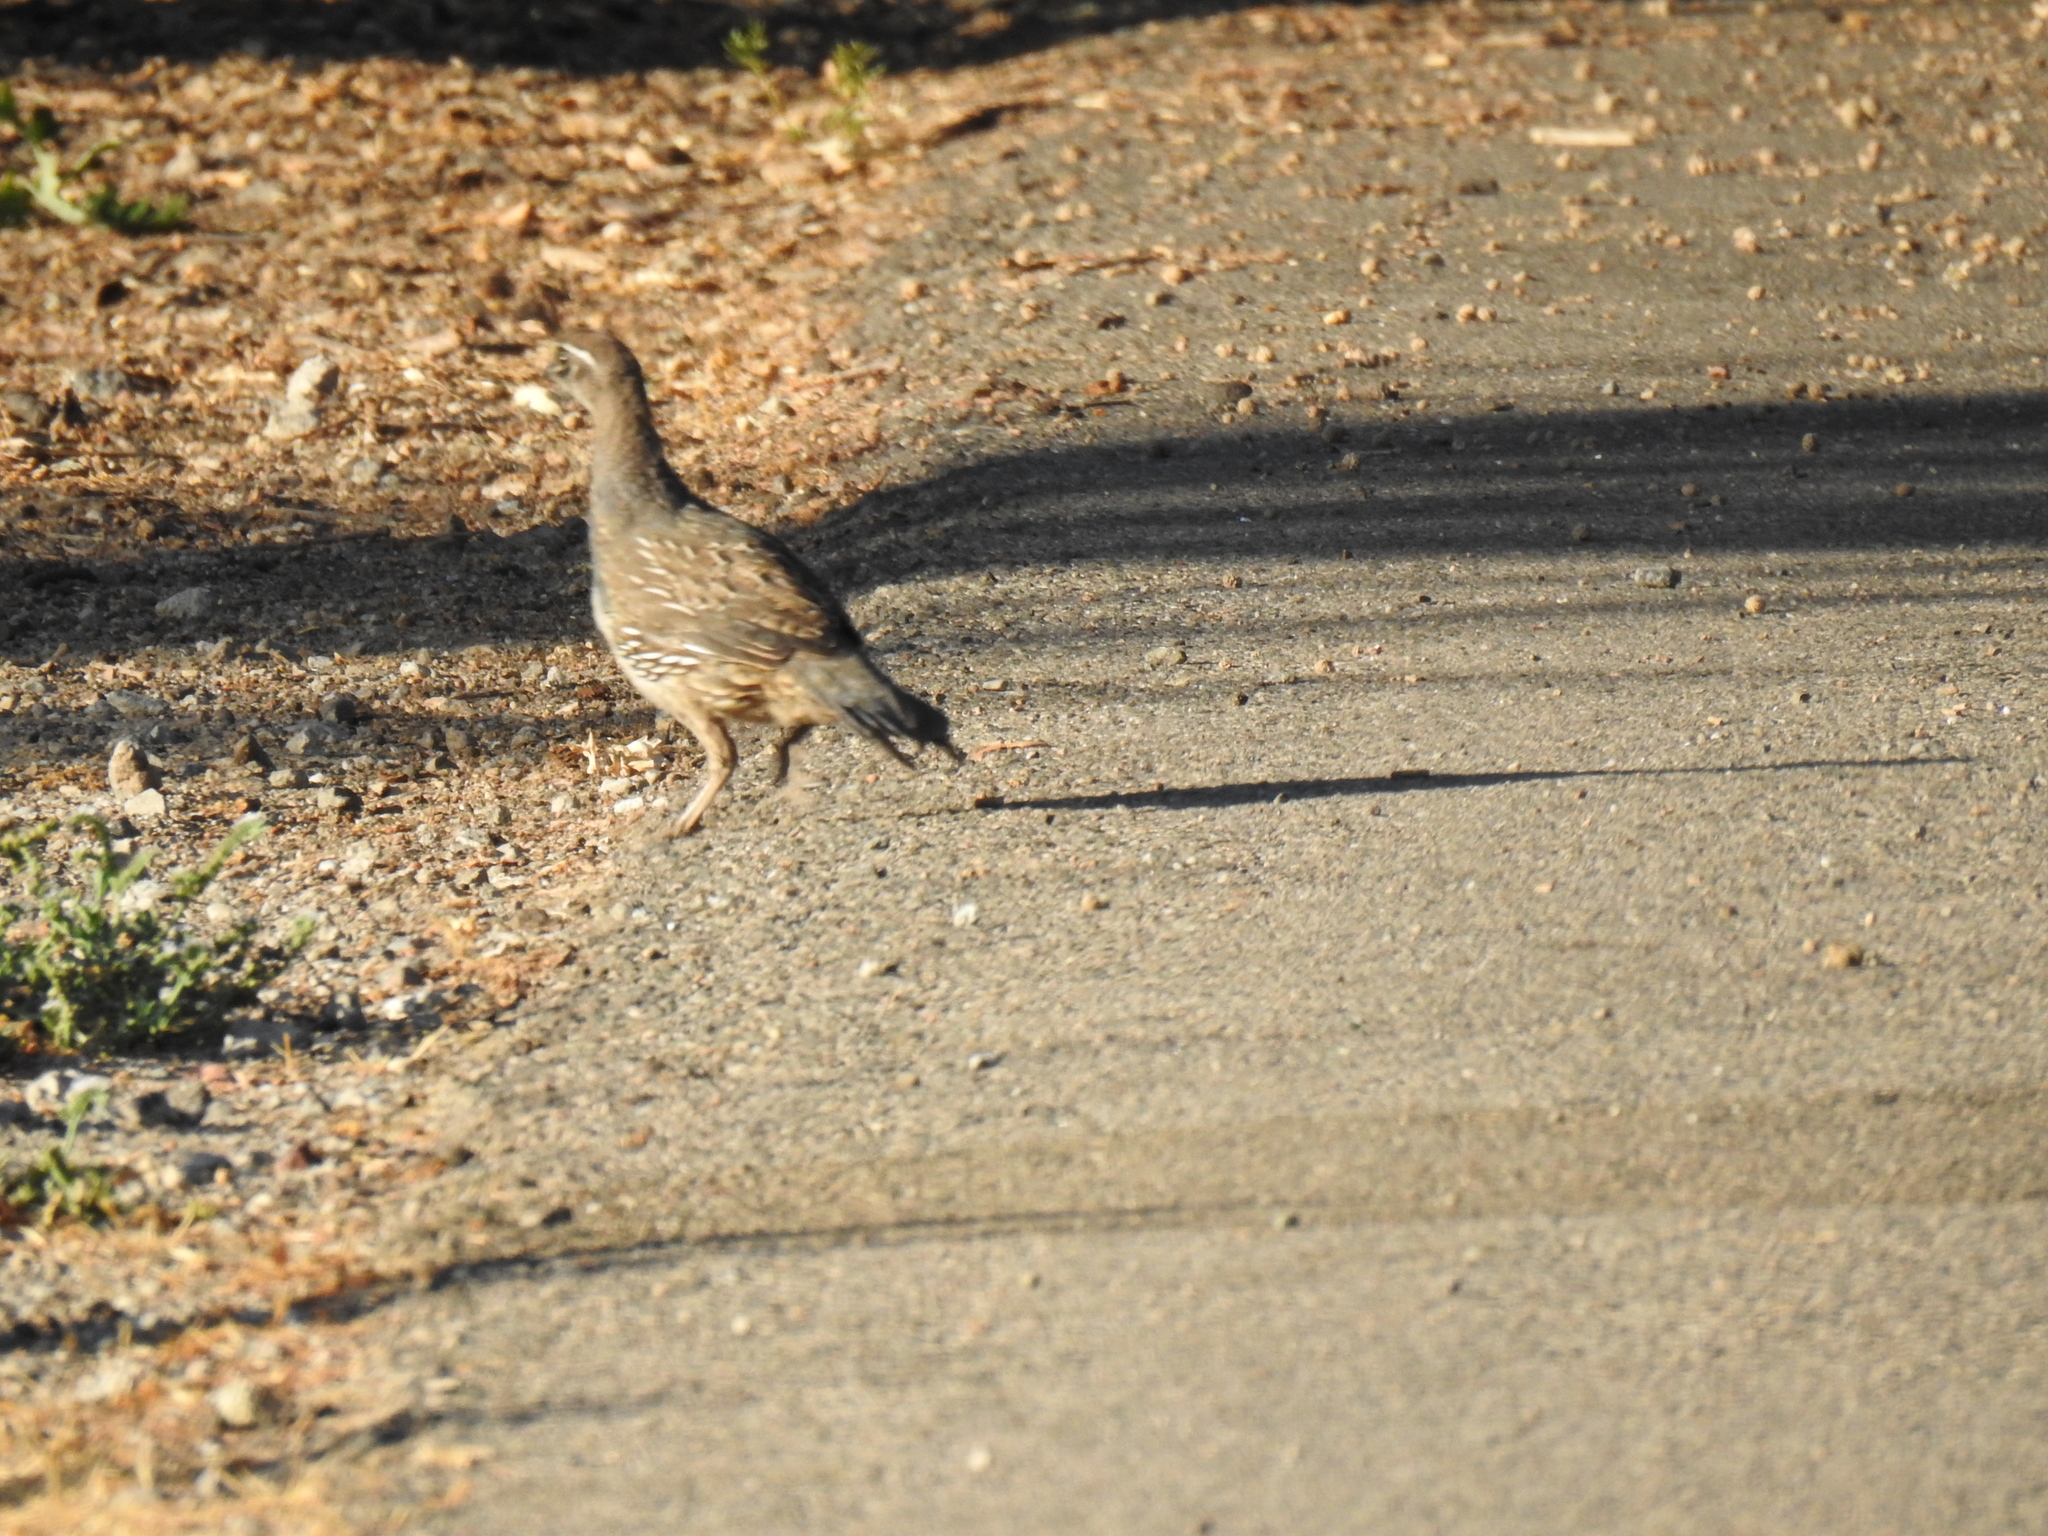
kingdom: Animalia
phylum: Chordata
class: Aves
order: Galliformes
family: Odontophoridae
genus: Callipepla
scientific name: Callipepla californica
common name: California quail
